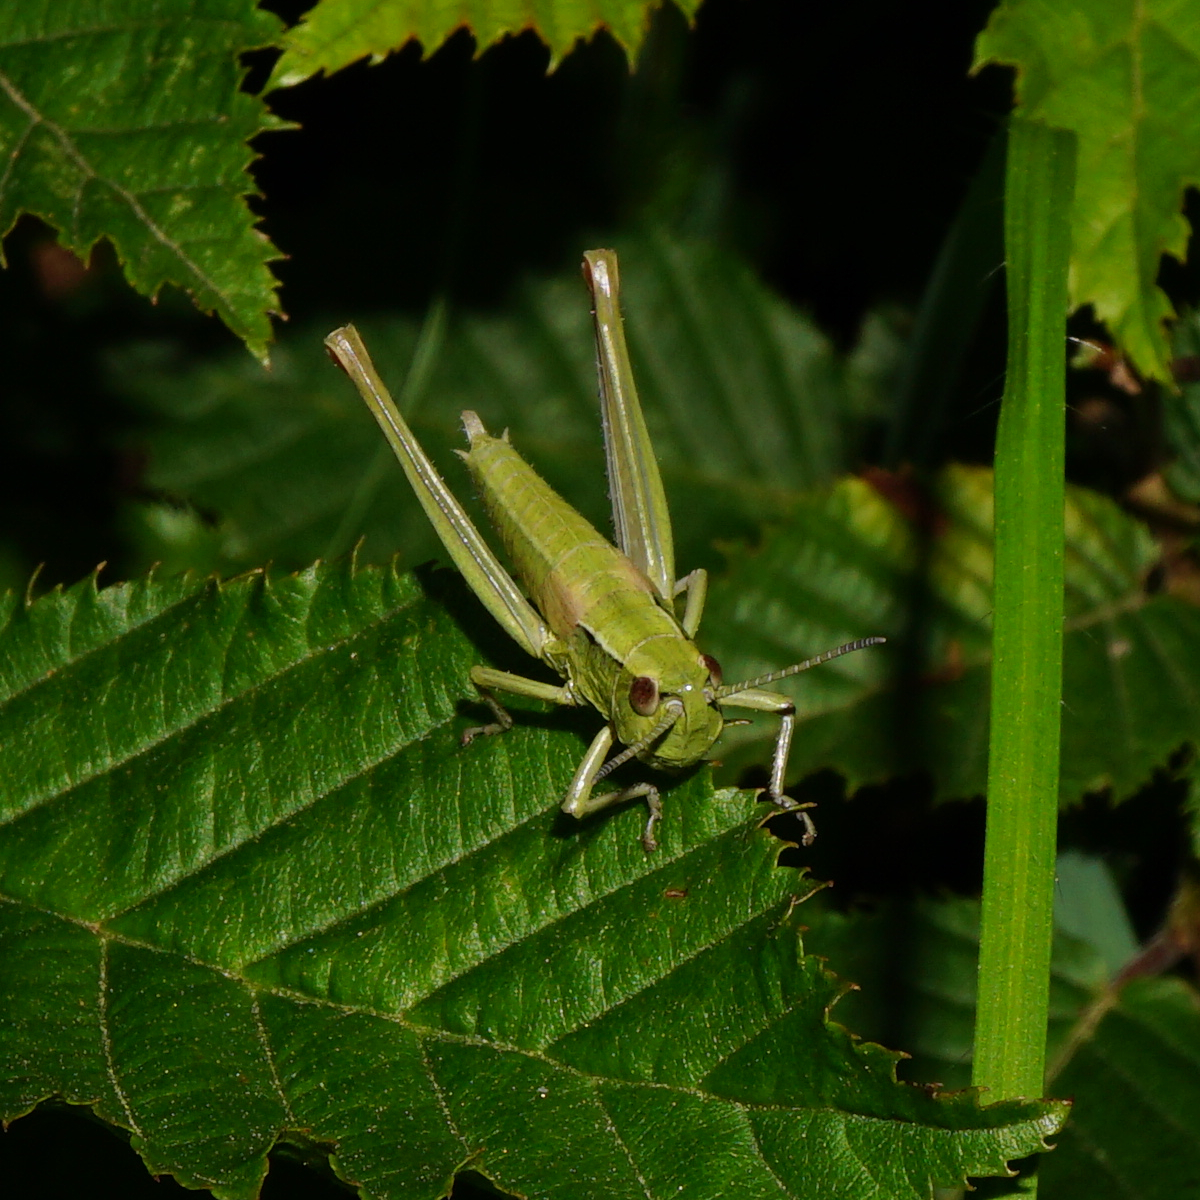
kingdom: Animalia
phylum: Arthropoda
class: Insecta
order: Orthoptera
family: Acrididae
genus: Euthystira
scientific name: Euthystira brachyptera
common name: Small gold grasshopper
